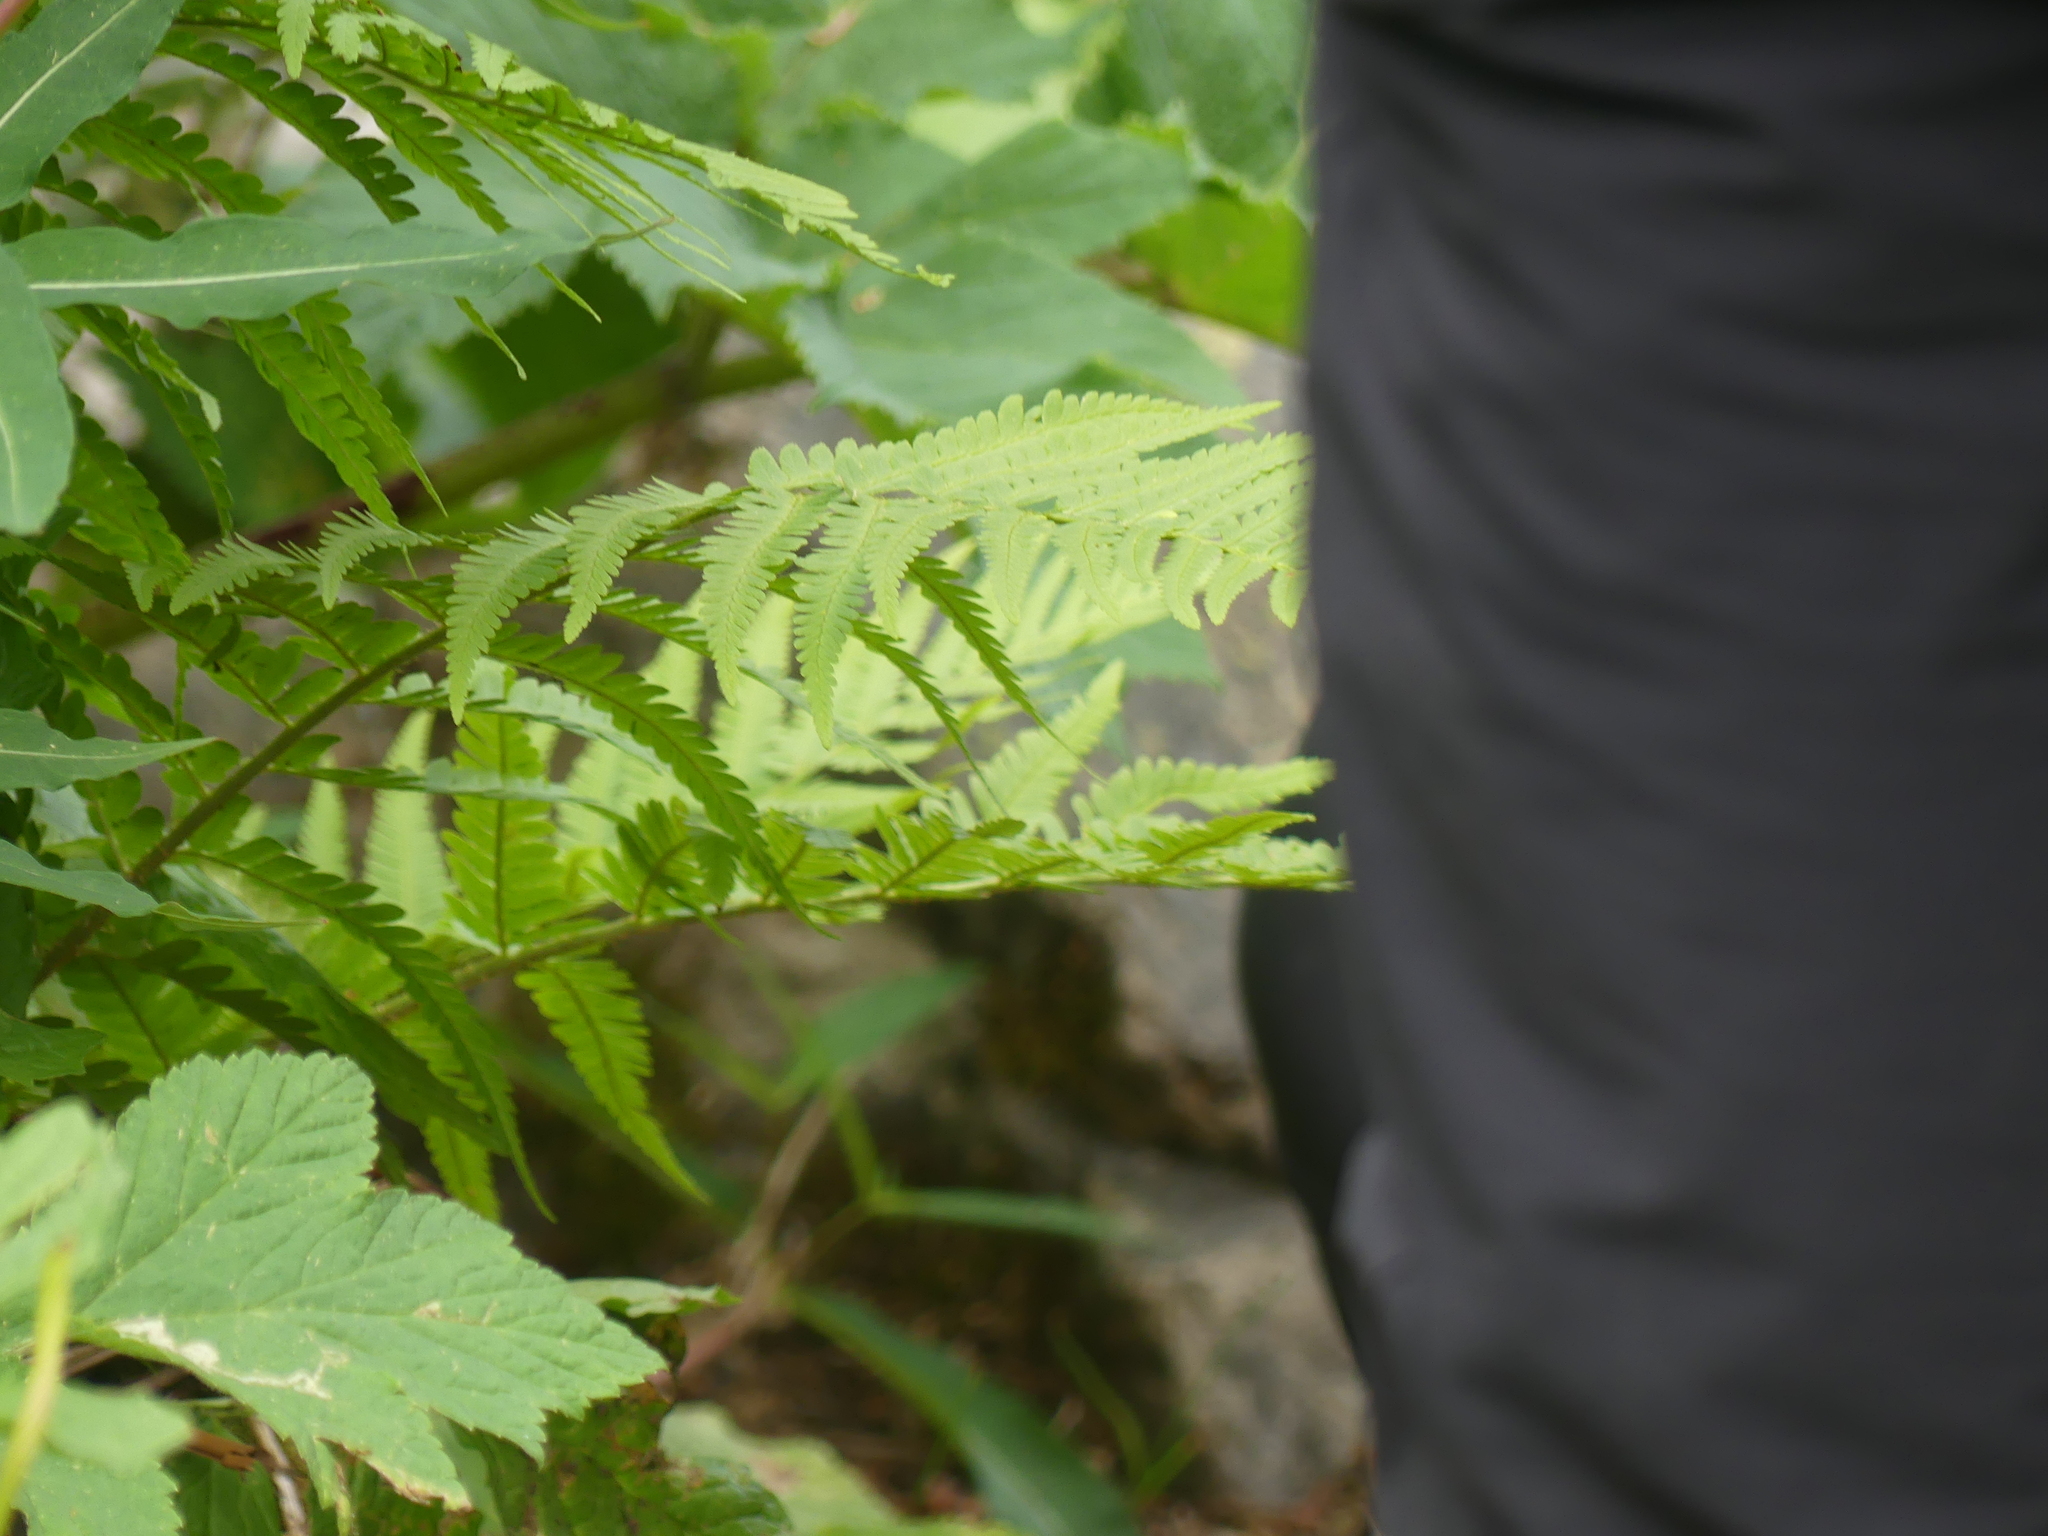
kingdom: Plantae
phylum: Tracheophyta
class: Polypodiopsida
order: Polypodiales
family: Dryopteridaceae
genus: Dryopteris
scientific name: Dryopteris filix-mas
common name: Male fern
